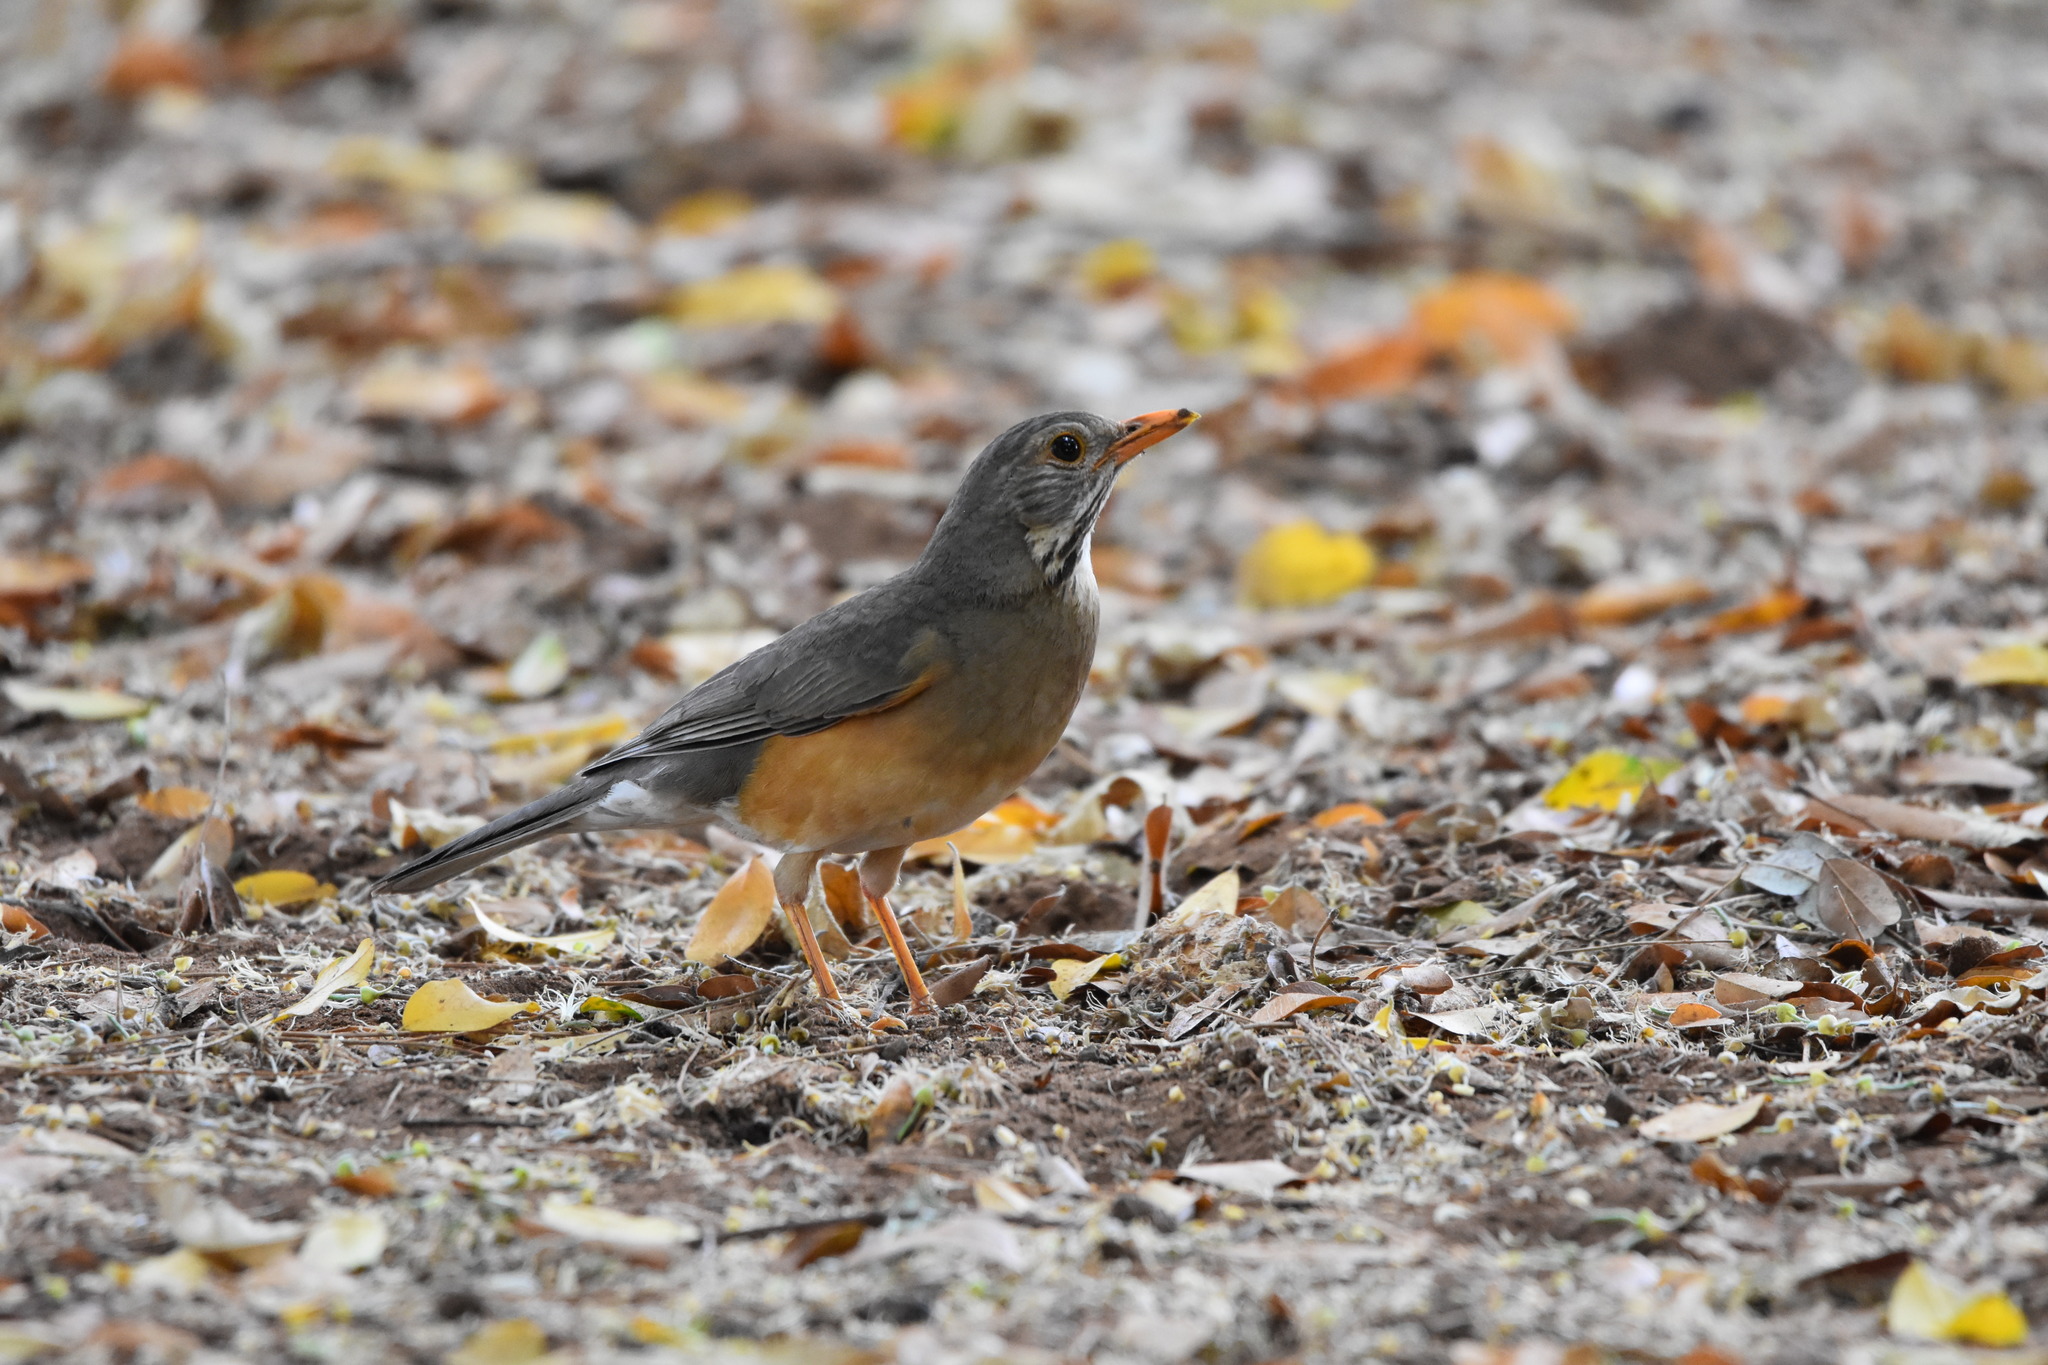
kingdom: Animalia
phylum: Chordata
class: Aves
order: Passeriformes
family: Turdidae
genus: Turdus
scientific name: Turdus libonyana
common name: Kurrichane thrush
